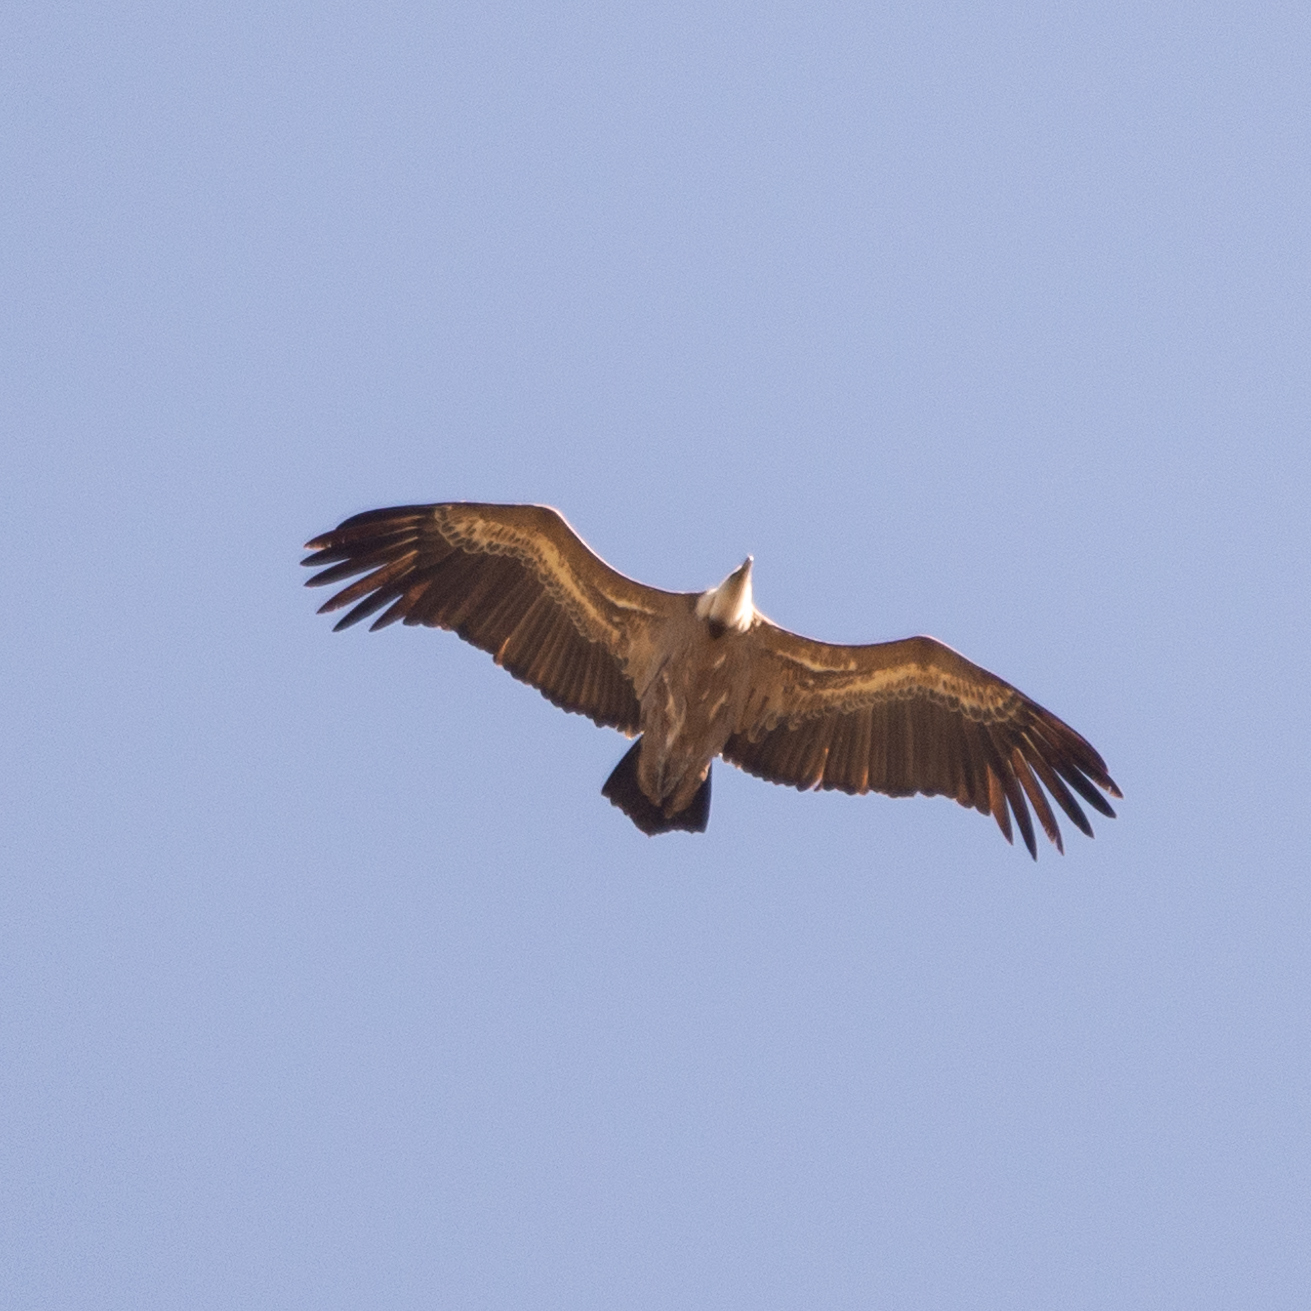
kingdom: Animalia
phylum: Chordata
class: Aves
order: Accipitriformes
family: Accipitridae
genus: Gyps
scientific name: Gyps fulvus
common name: Griffon vulture
